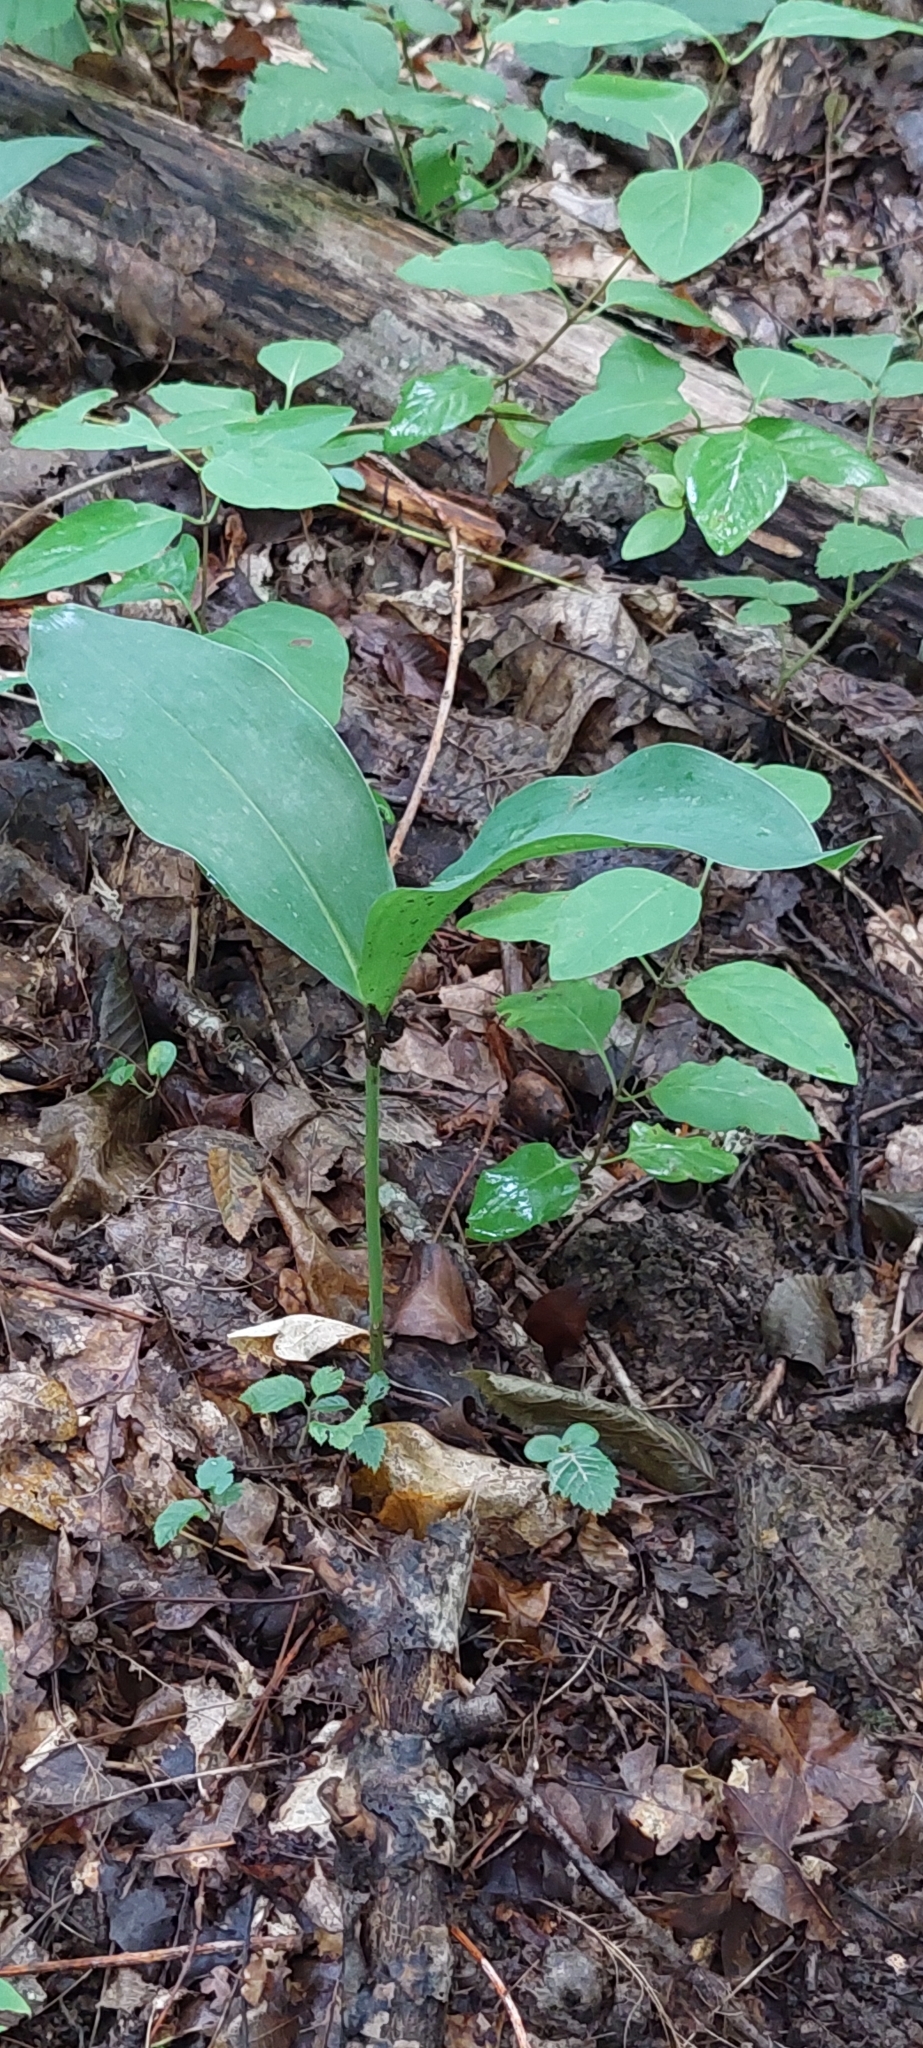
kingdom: Plantae
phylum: Tracheophyta
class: Liliopsida
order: Asparagales
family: Asparagaceae
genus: Convallaria
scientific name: Convallaria majalis
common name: Lily-of-the-valley
